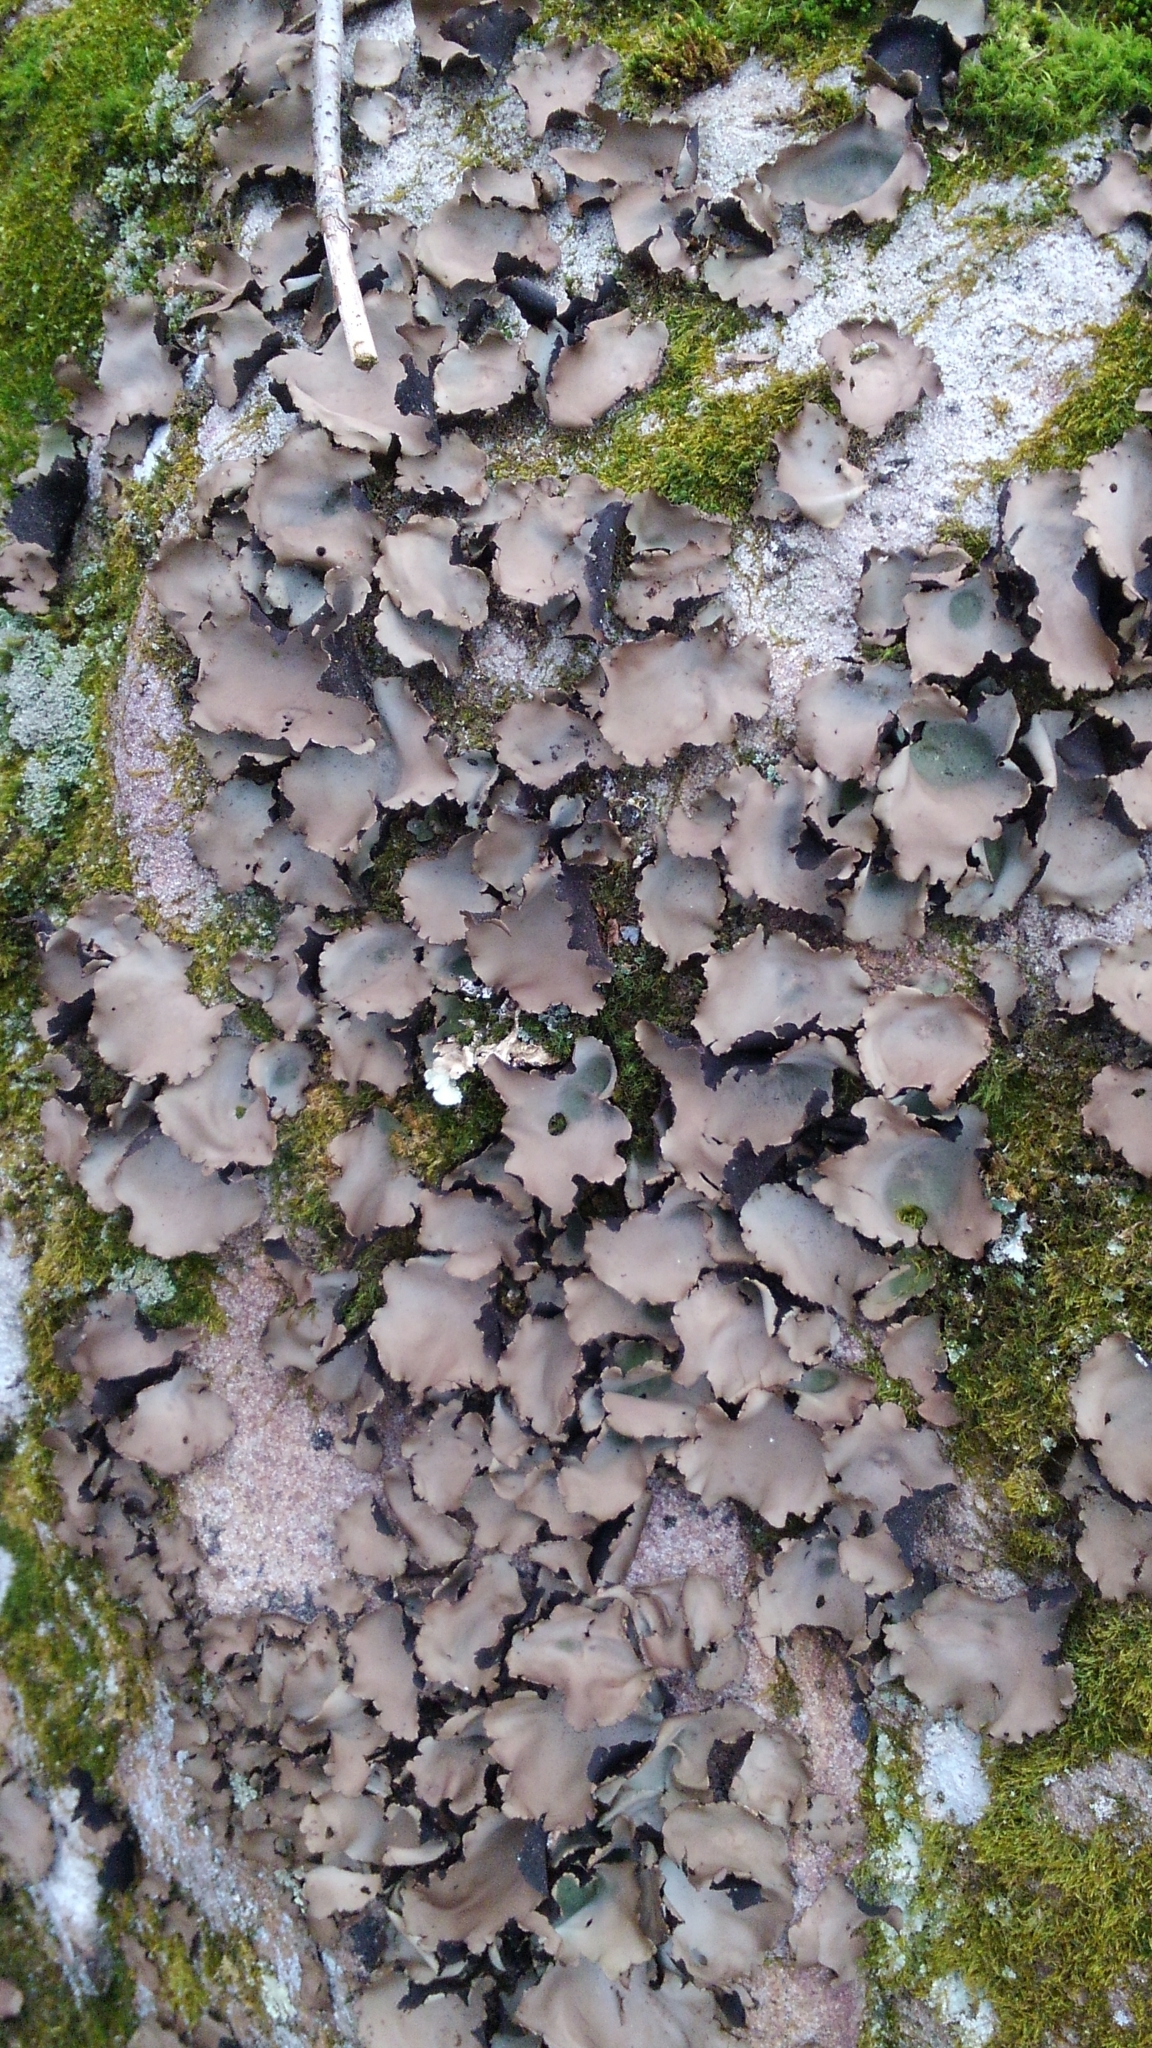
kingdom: Fungi
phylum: Ascomycota
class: Lecanoromycetes
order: Umbilicariales
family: Umbilicariaceae
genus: Umbilicaria
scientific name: Umbilicaria mammulata
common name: Smooth rock tripe
